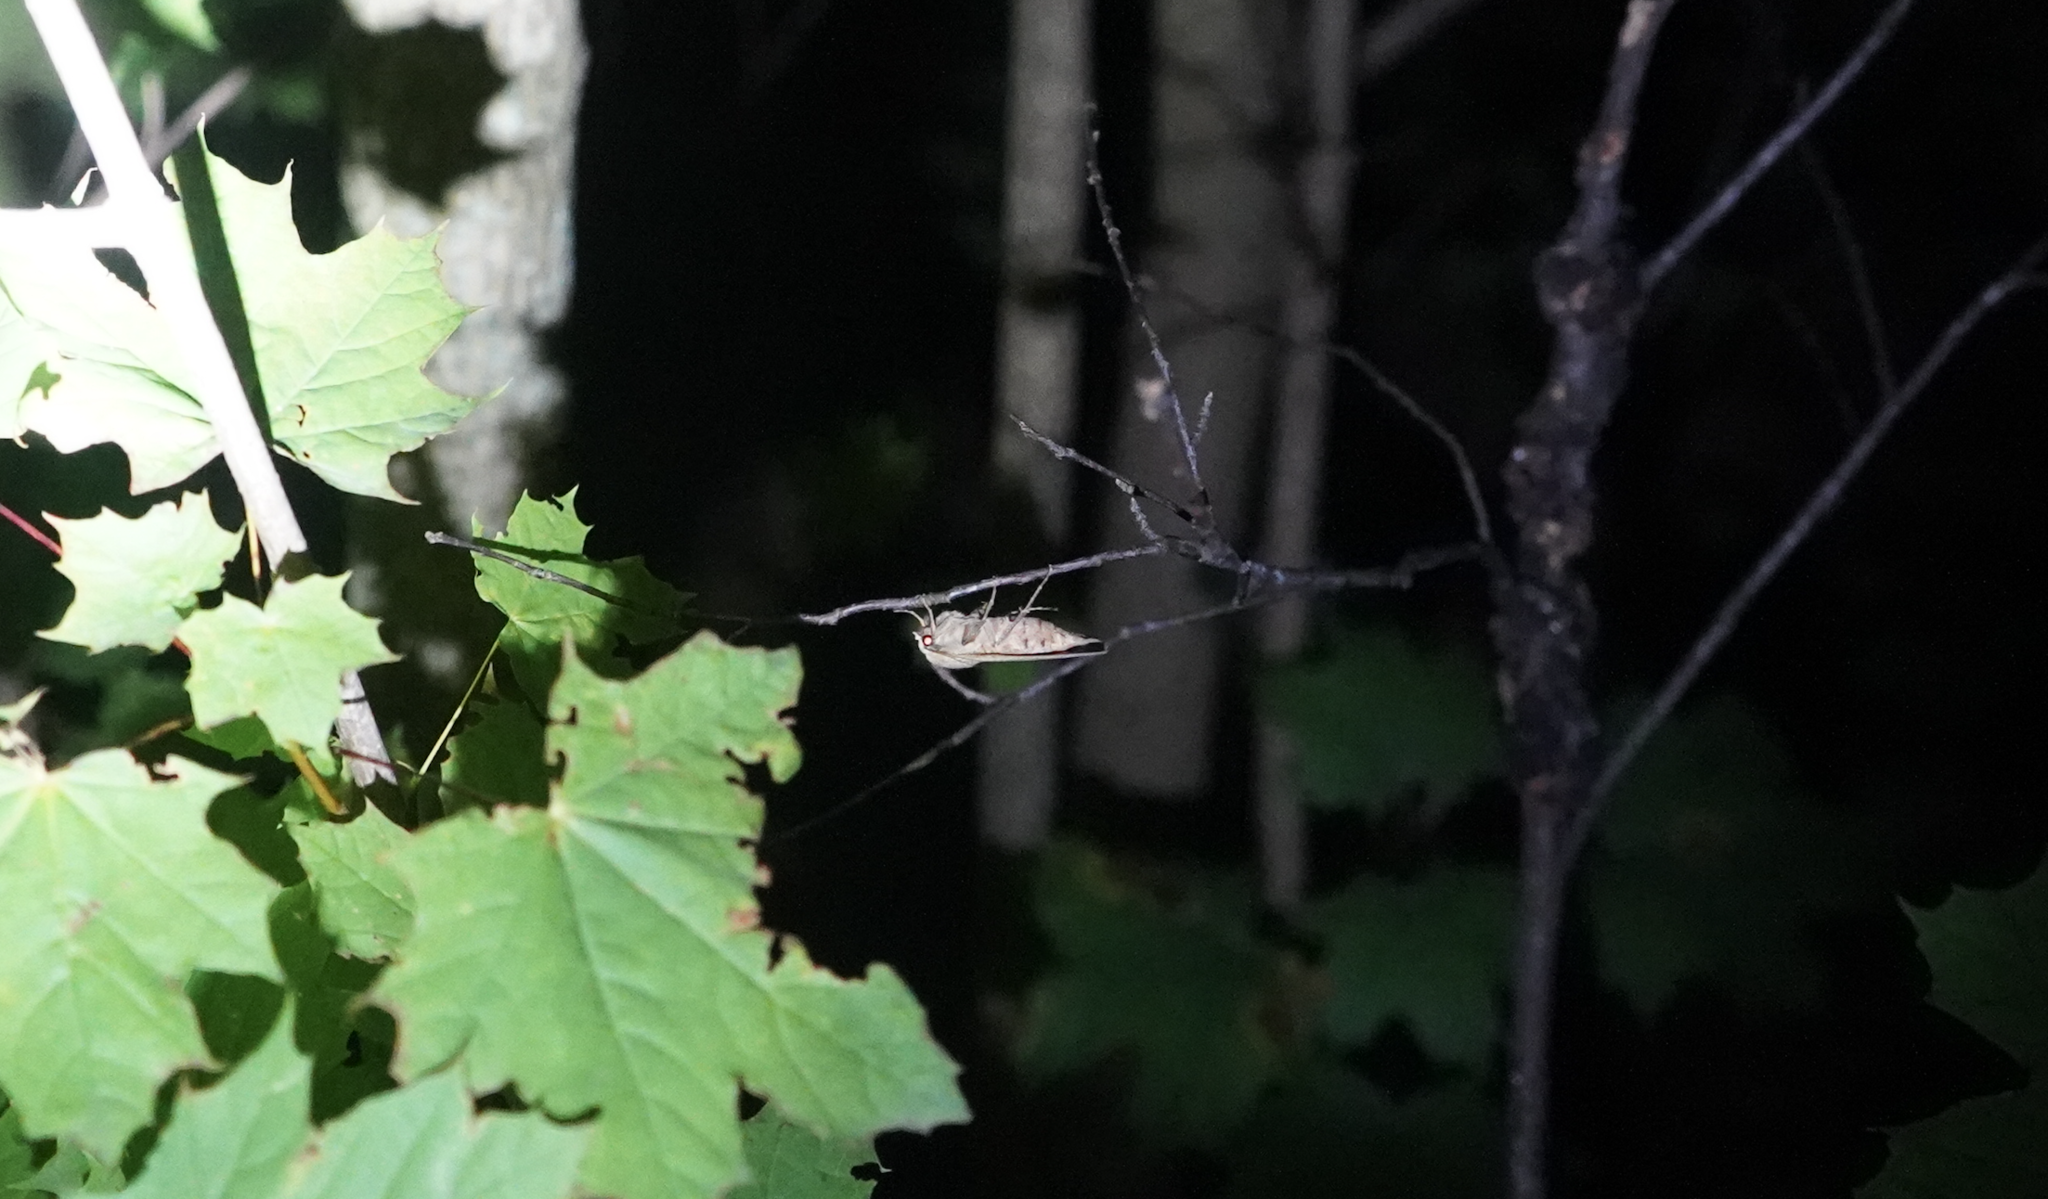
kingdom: Animalia
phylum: Arthropoda
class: Insecta
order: Lepidoptera
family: Noctuidae
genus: Noctua
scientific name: Noctua pronuba
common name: Large yellow underwing
